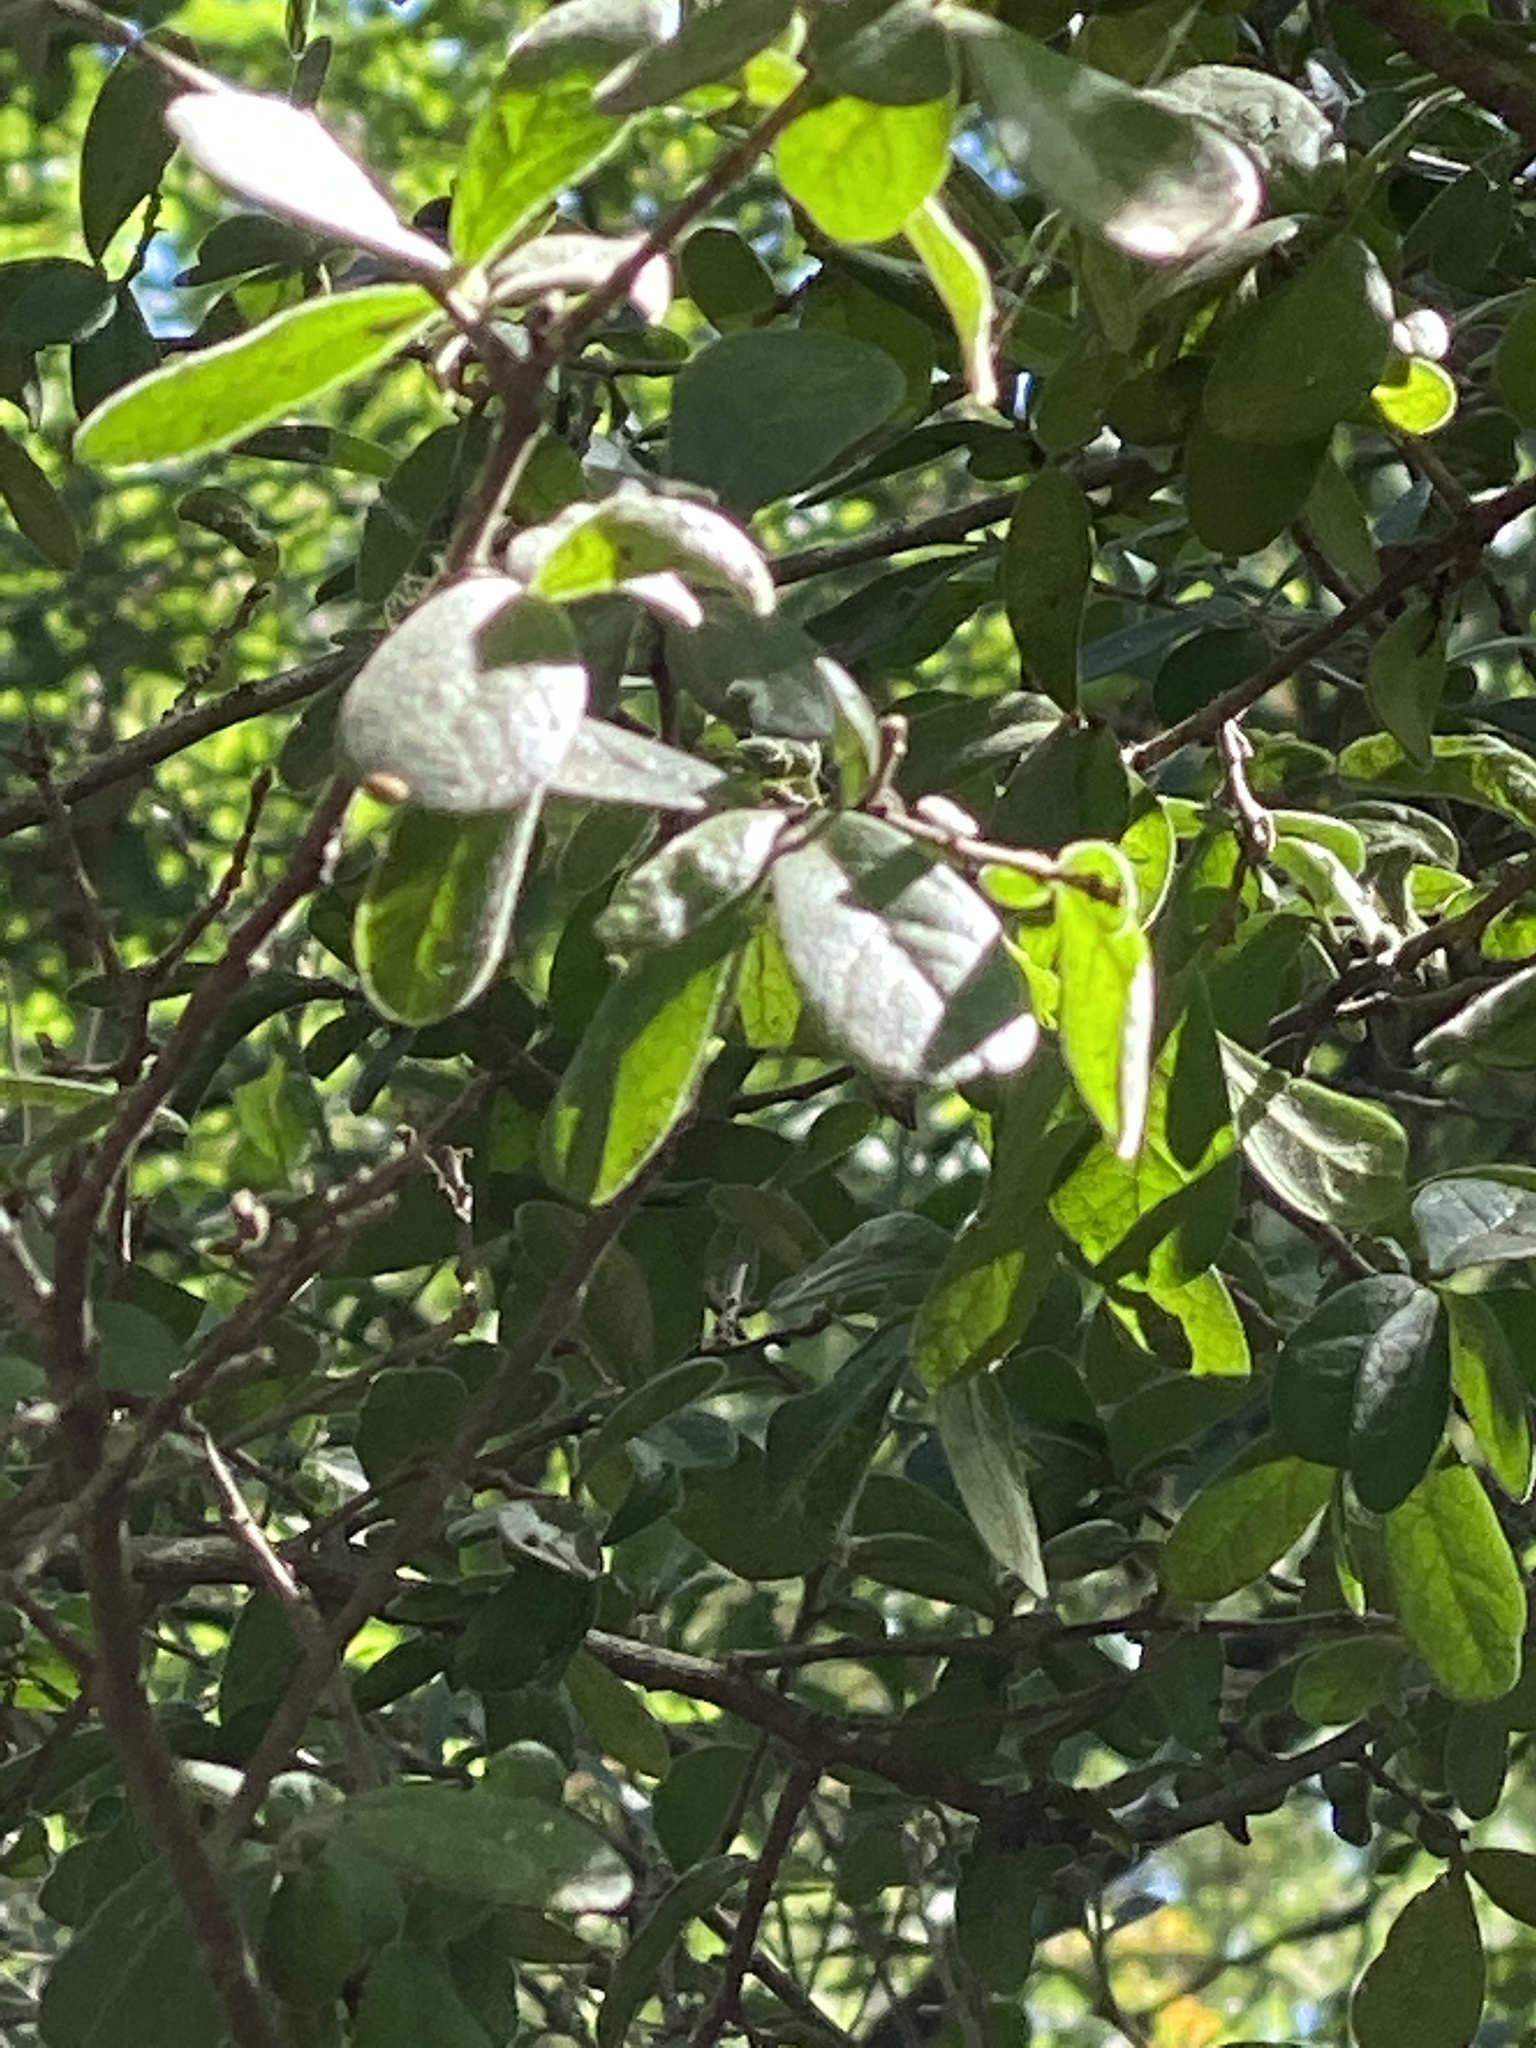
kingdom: Plantae
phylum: Tracheophyta
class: Magnoliopsida
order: Ericales
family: Ebenaceae
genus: Diospyros
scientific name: Diospyros texana
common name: Texas persimmon
